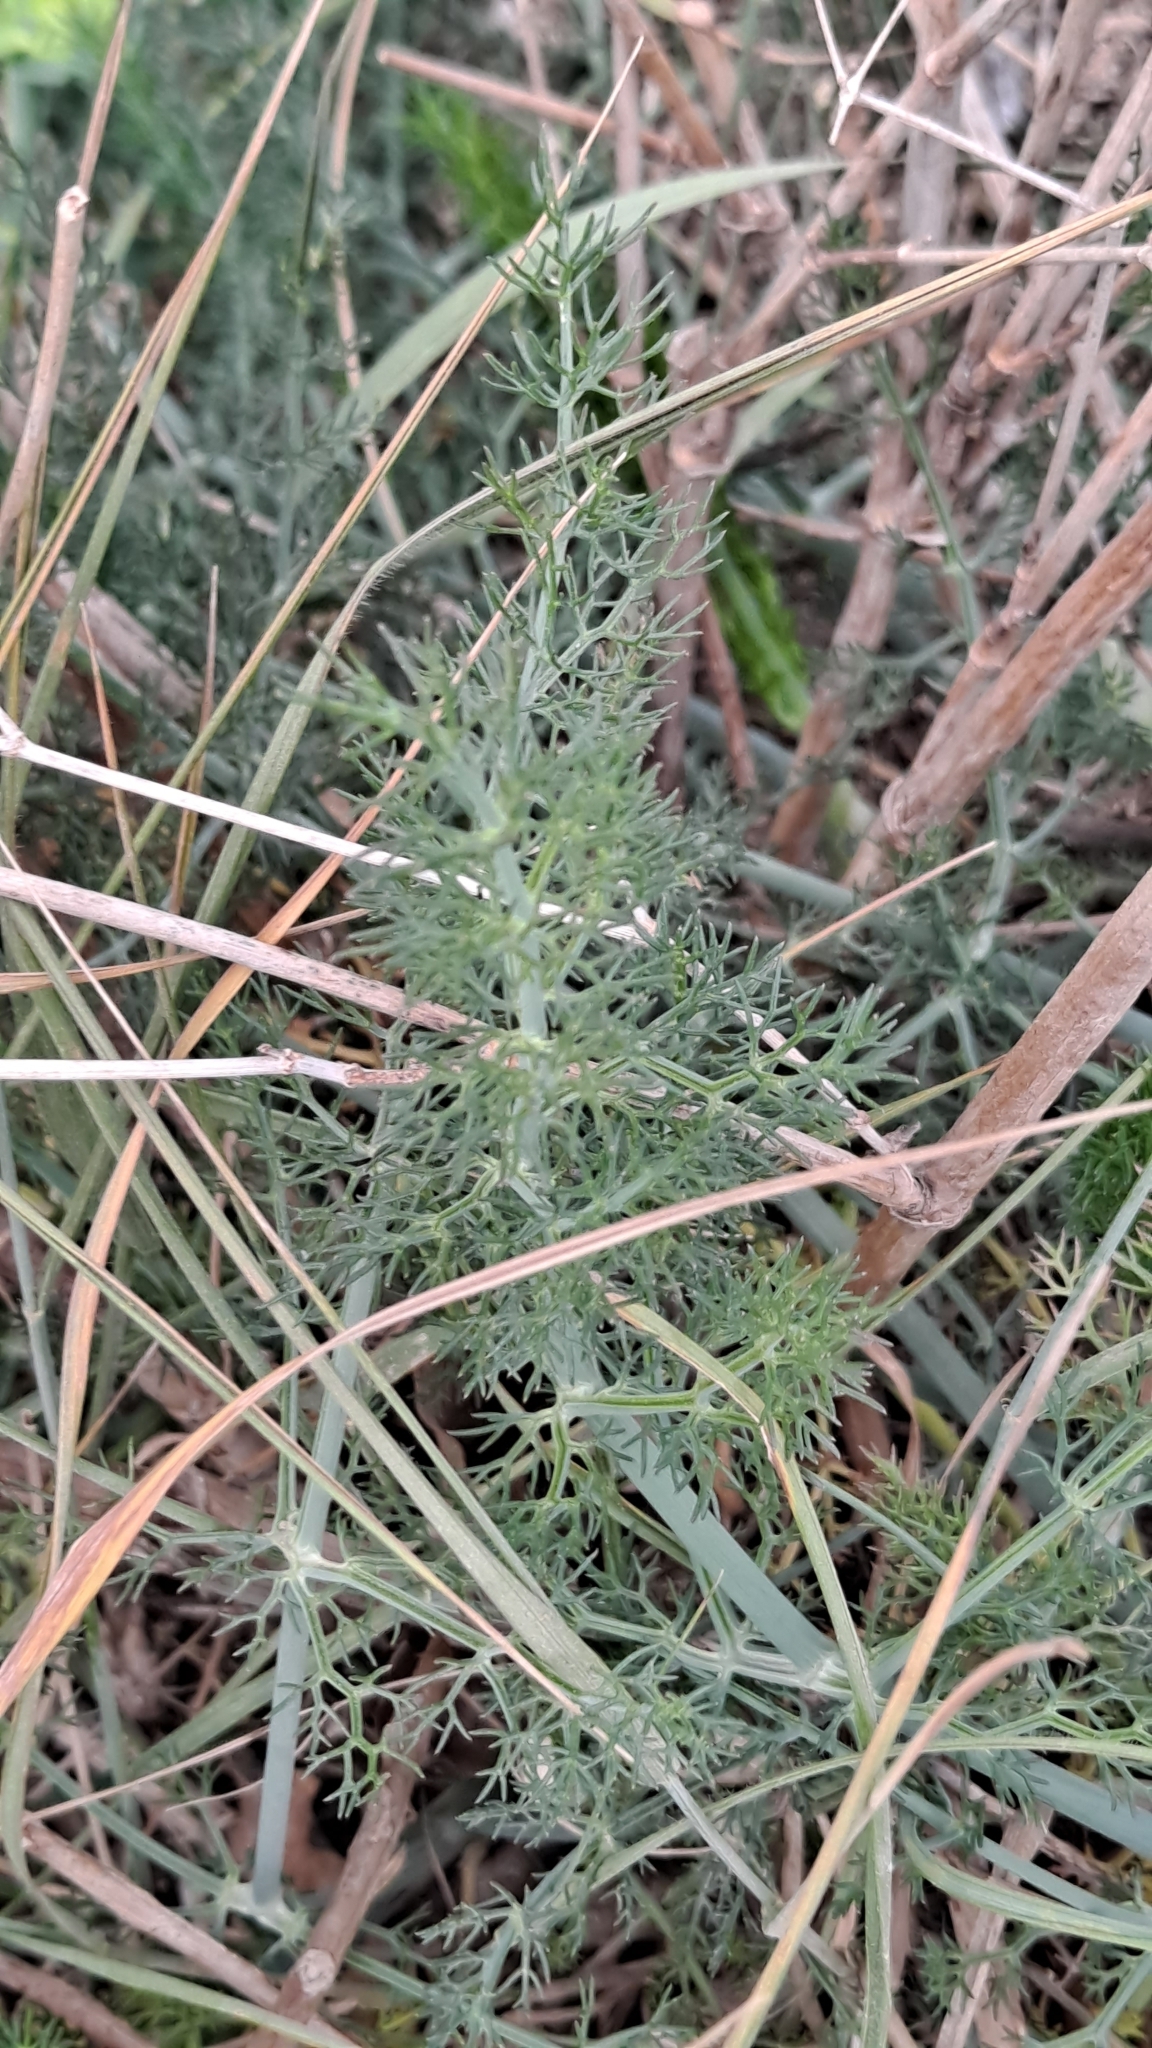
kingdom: Plantae
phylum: Tracheophyta
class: Magnoliopsida
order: Apiales
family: Apiaceae
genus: Foeniculum
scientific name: Foeniculum vulgare
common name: Fennel
